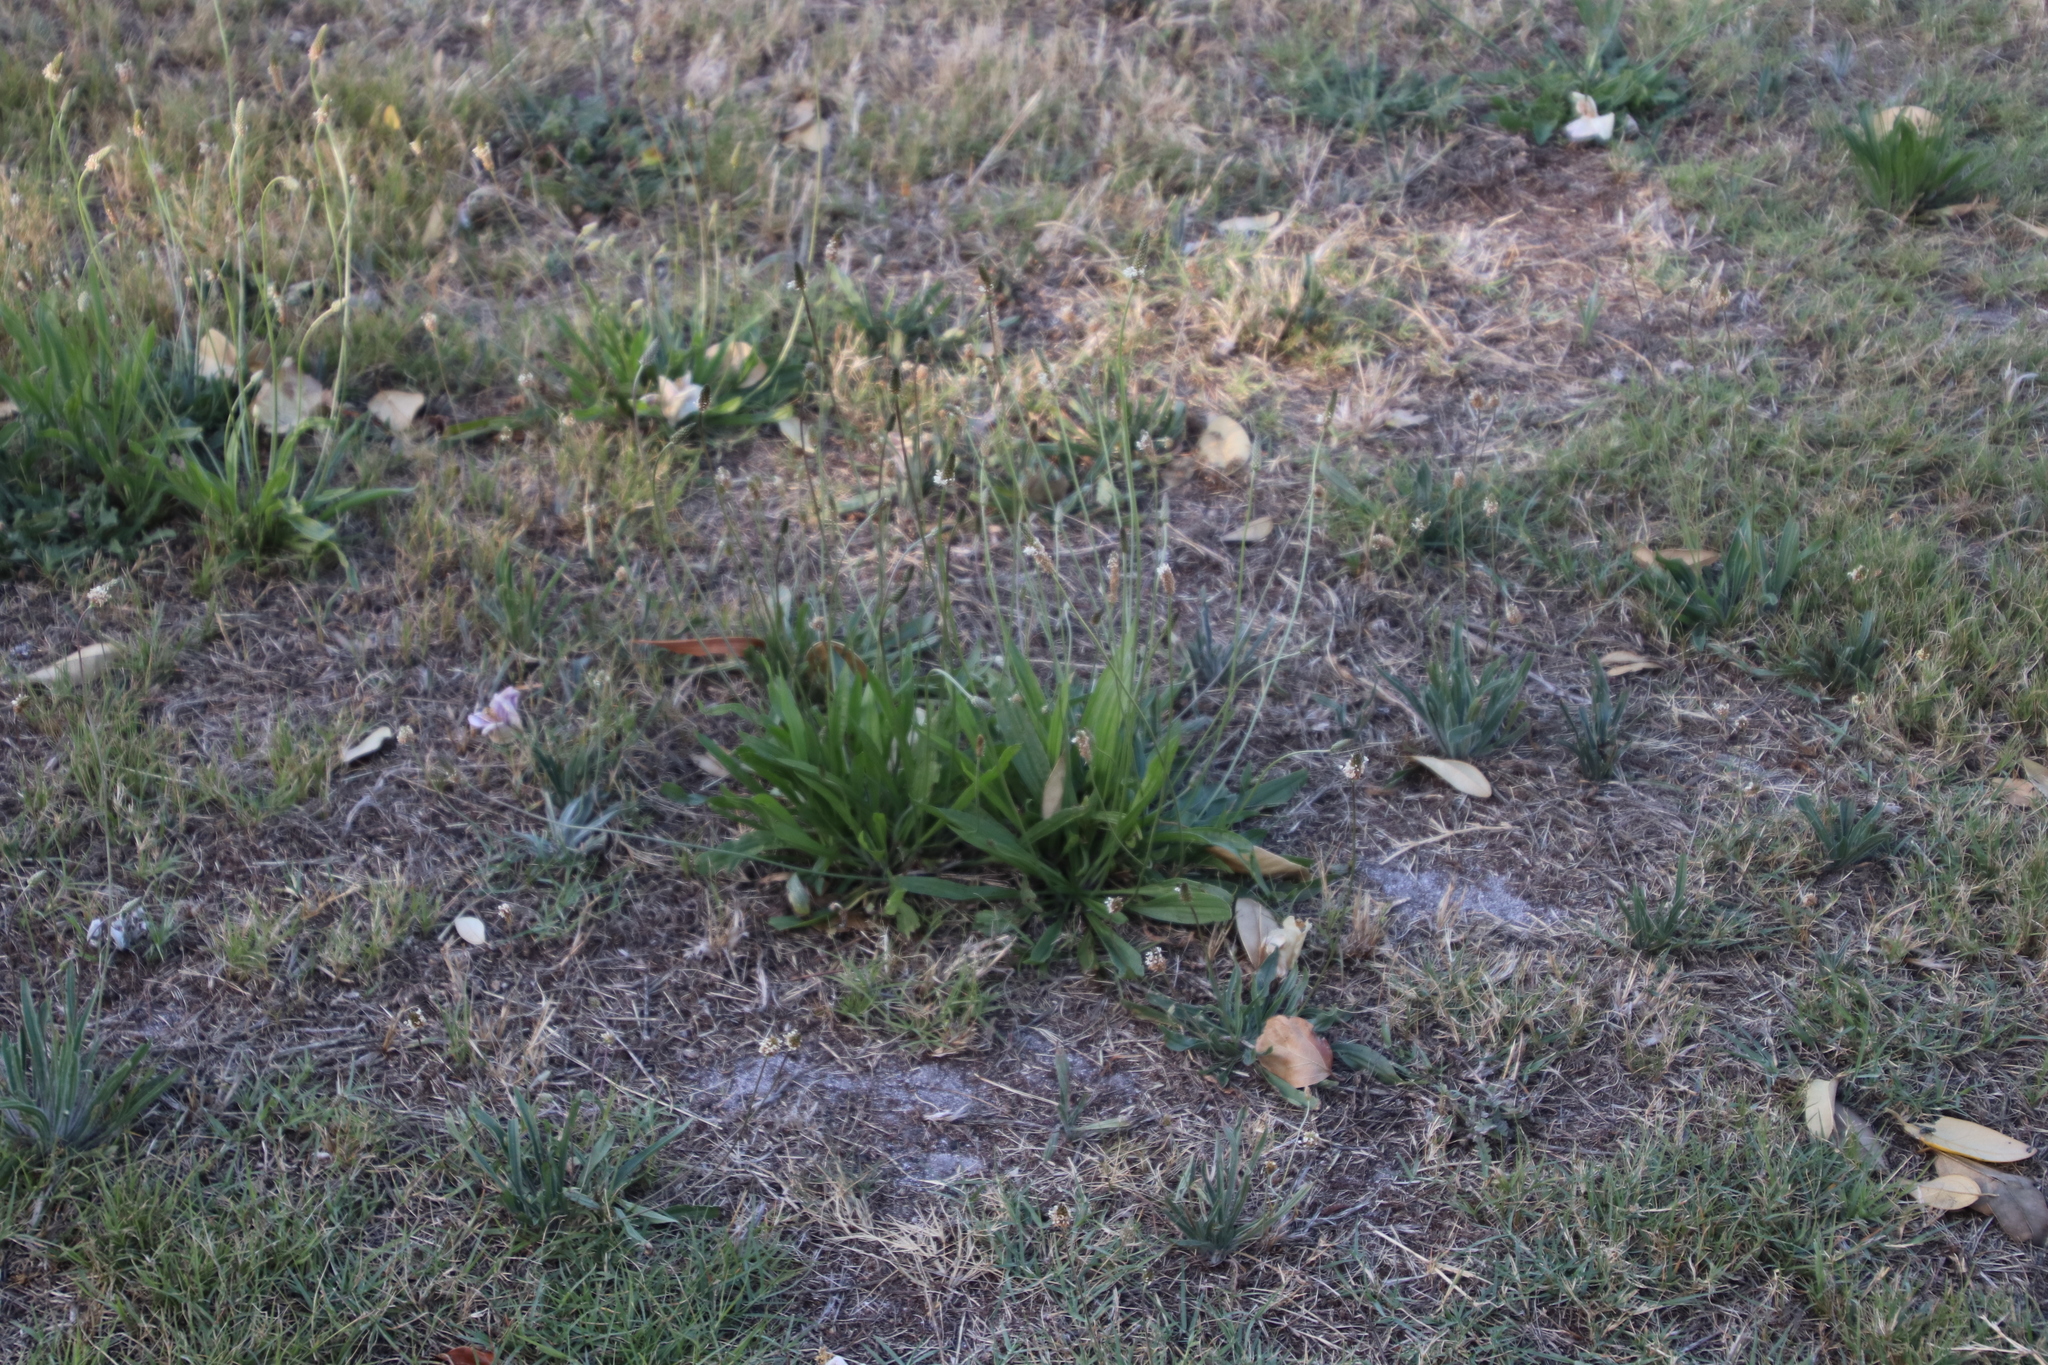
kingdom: Plantae
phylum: Tracheophyta
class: Magnoliopsida
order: Lamiales
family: Plantaginaceae
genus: Plantago
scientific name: Plantago lanceolata
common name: Ribwort plantain
